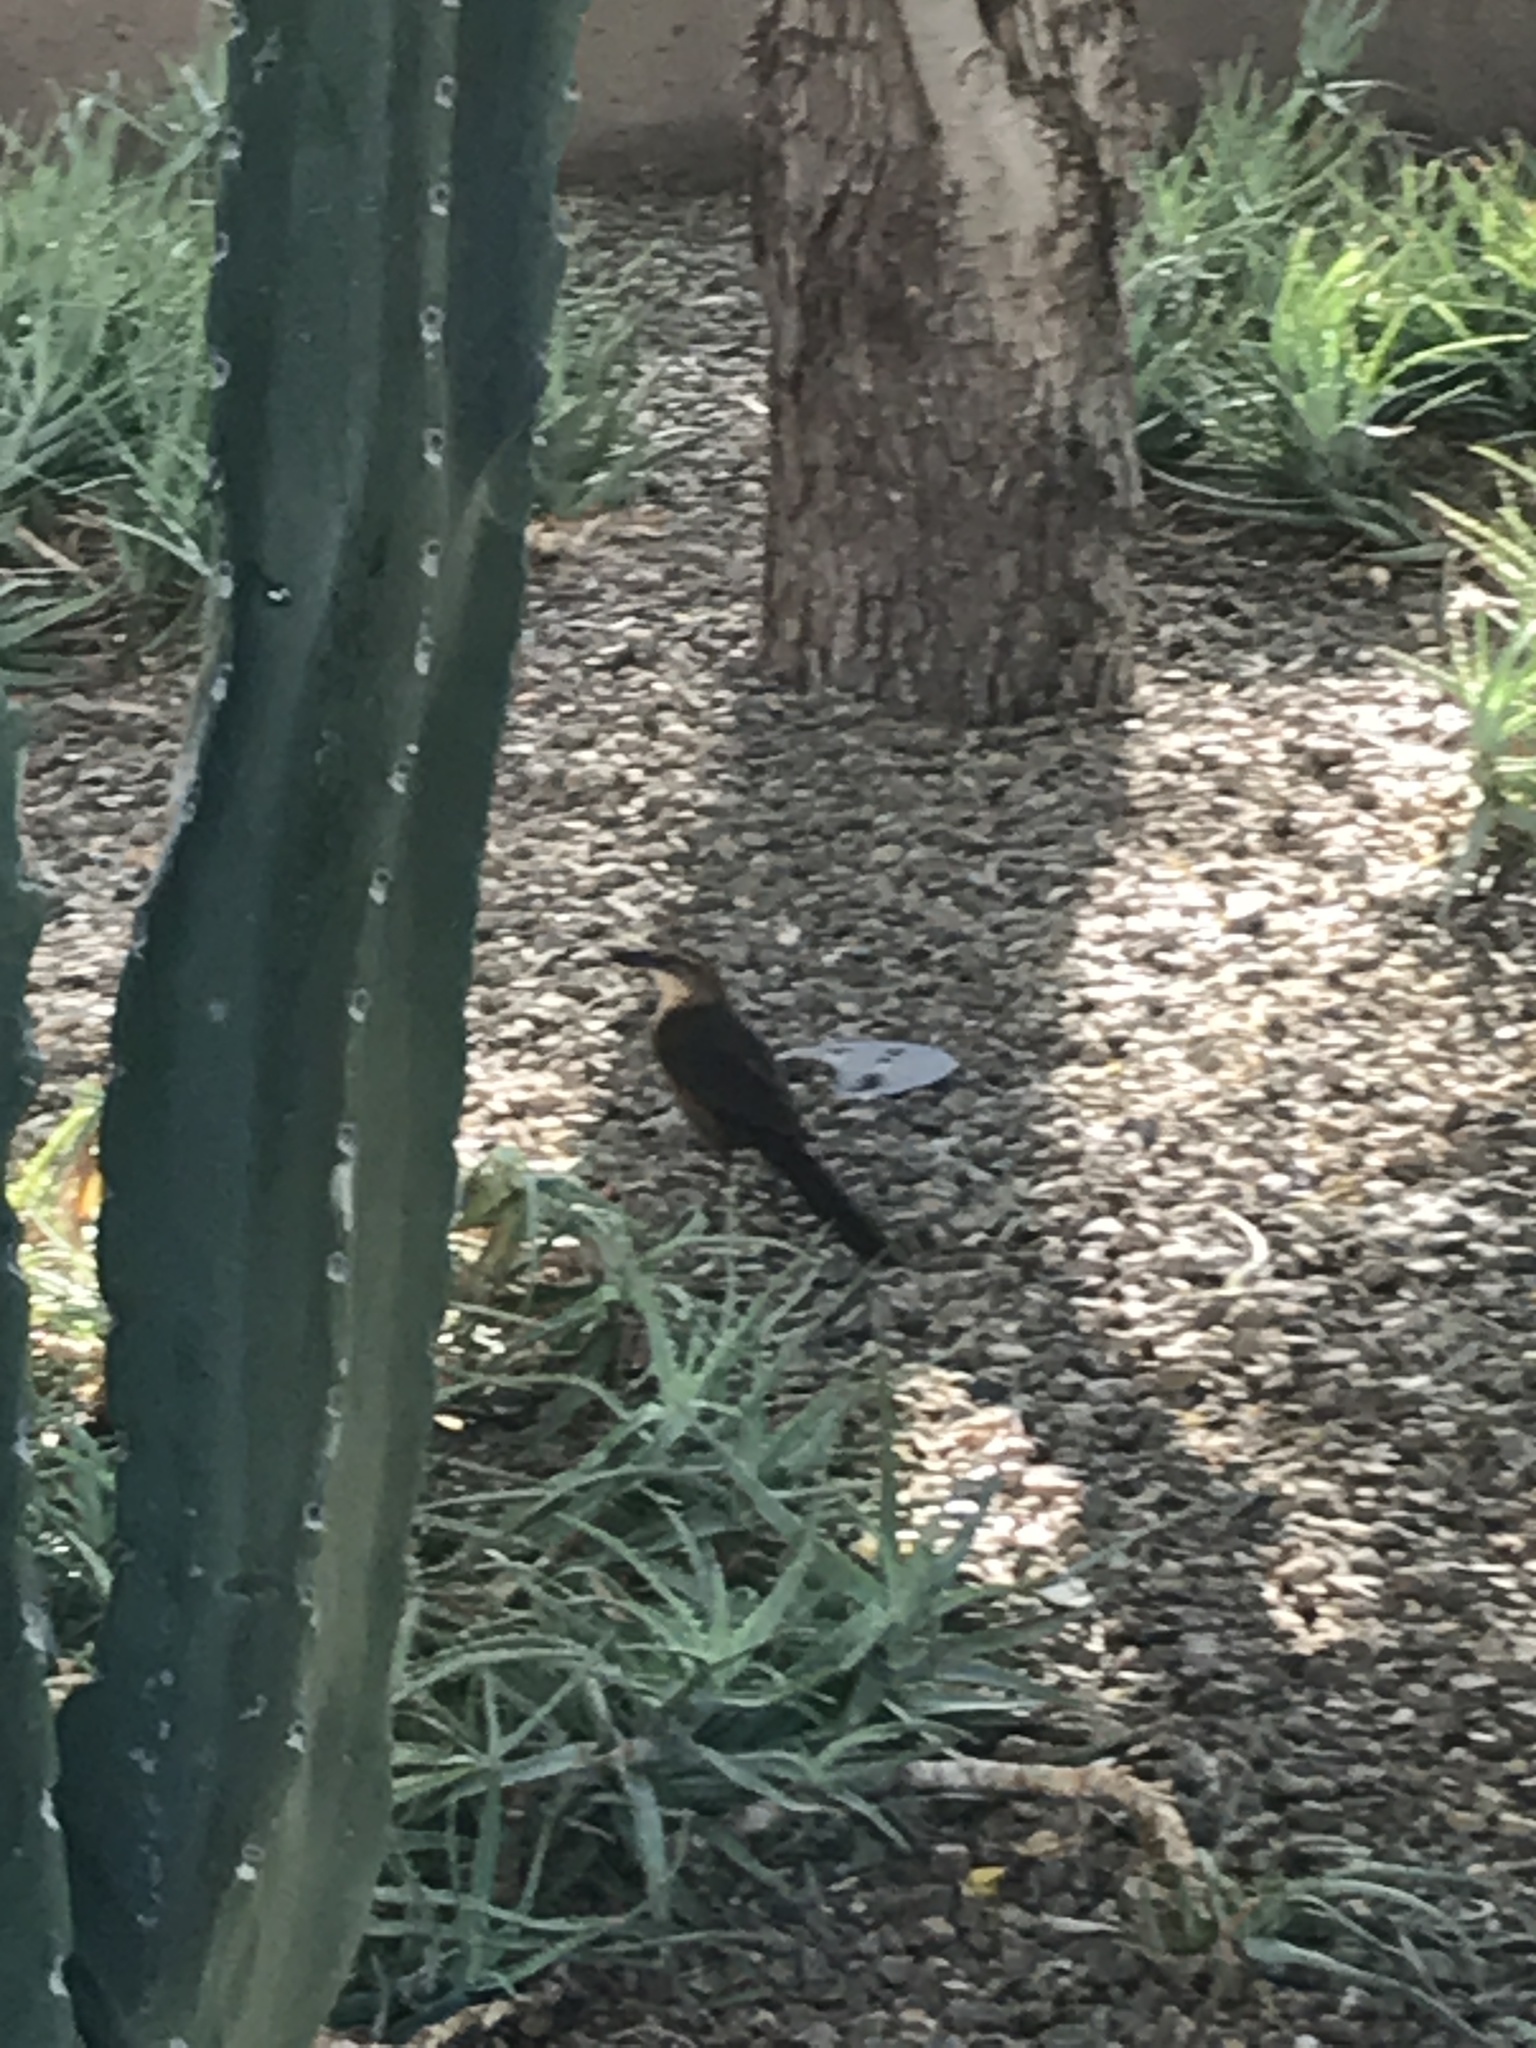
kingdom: Animalia
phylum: Chordata
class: Aves
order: Passeriformes
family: Icteridae
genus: Quiscalus
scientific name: Quiscalus mexicanus
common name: Great-tailed grackle
